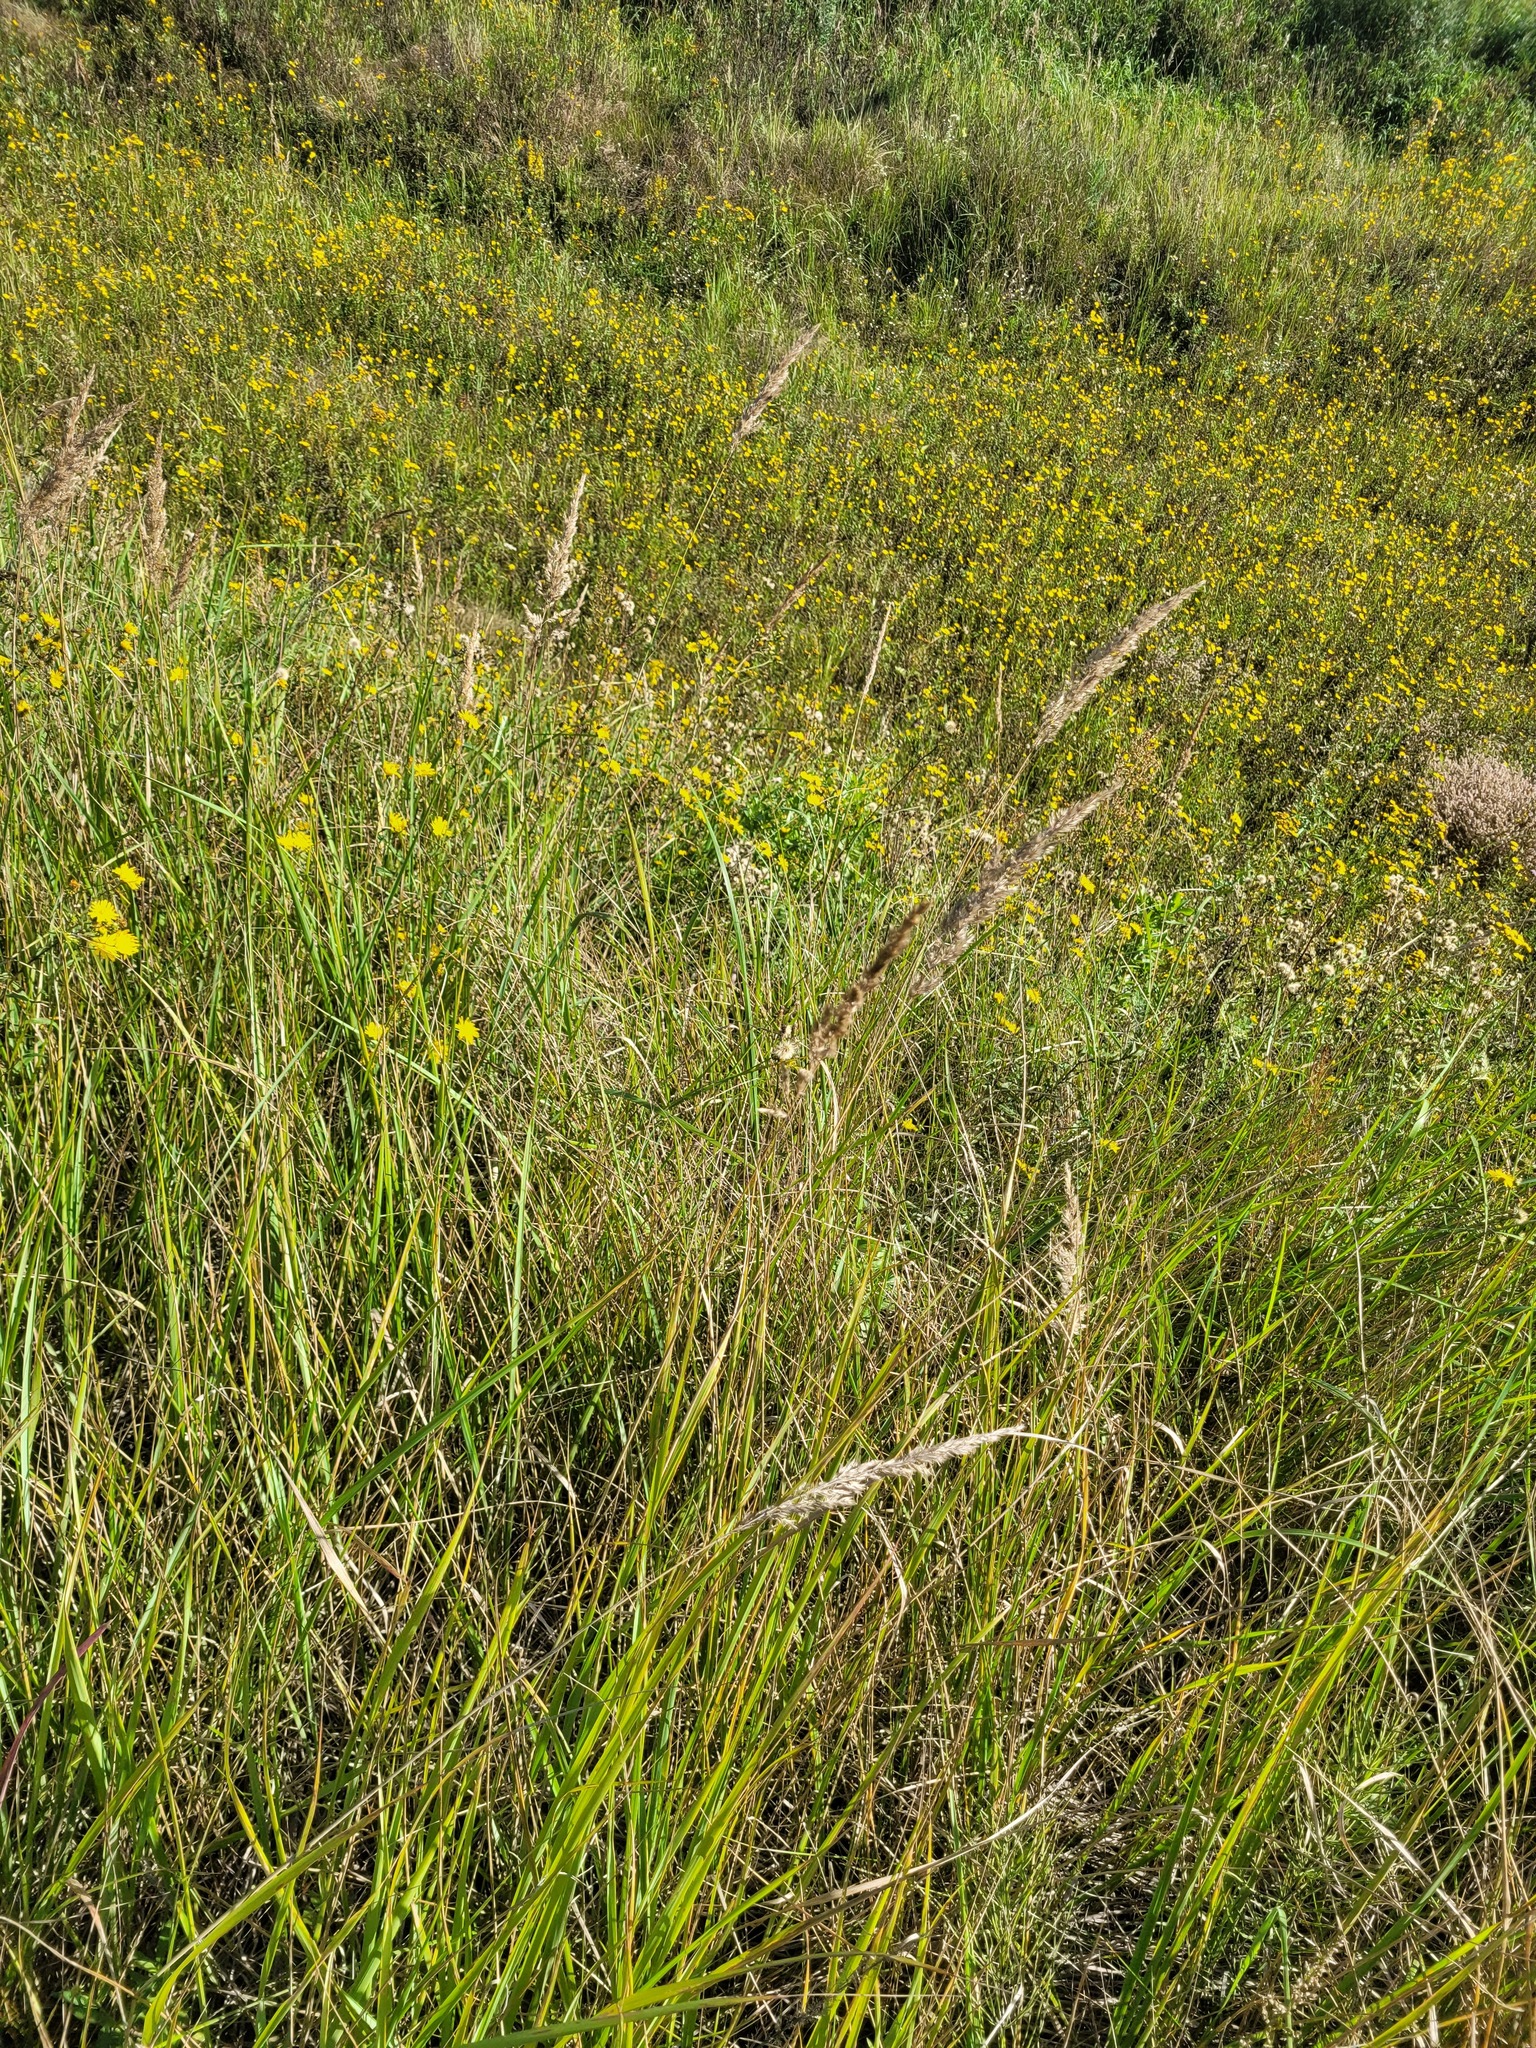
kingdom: Plantae
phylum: Tracheophyta
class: Liliopsida
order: Poales
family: Poaceae
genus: Calamagrostis
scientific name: Calamagrostis epigejos
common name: Wood small-reed
